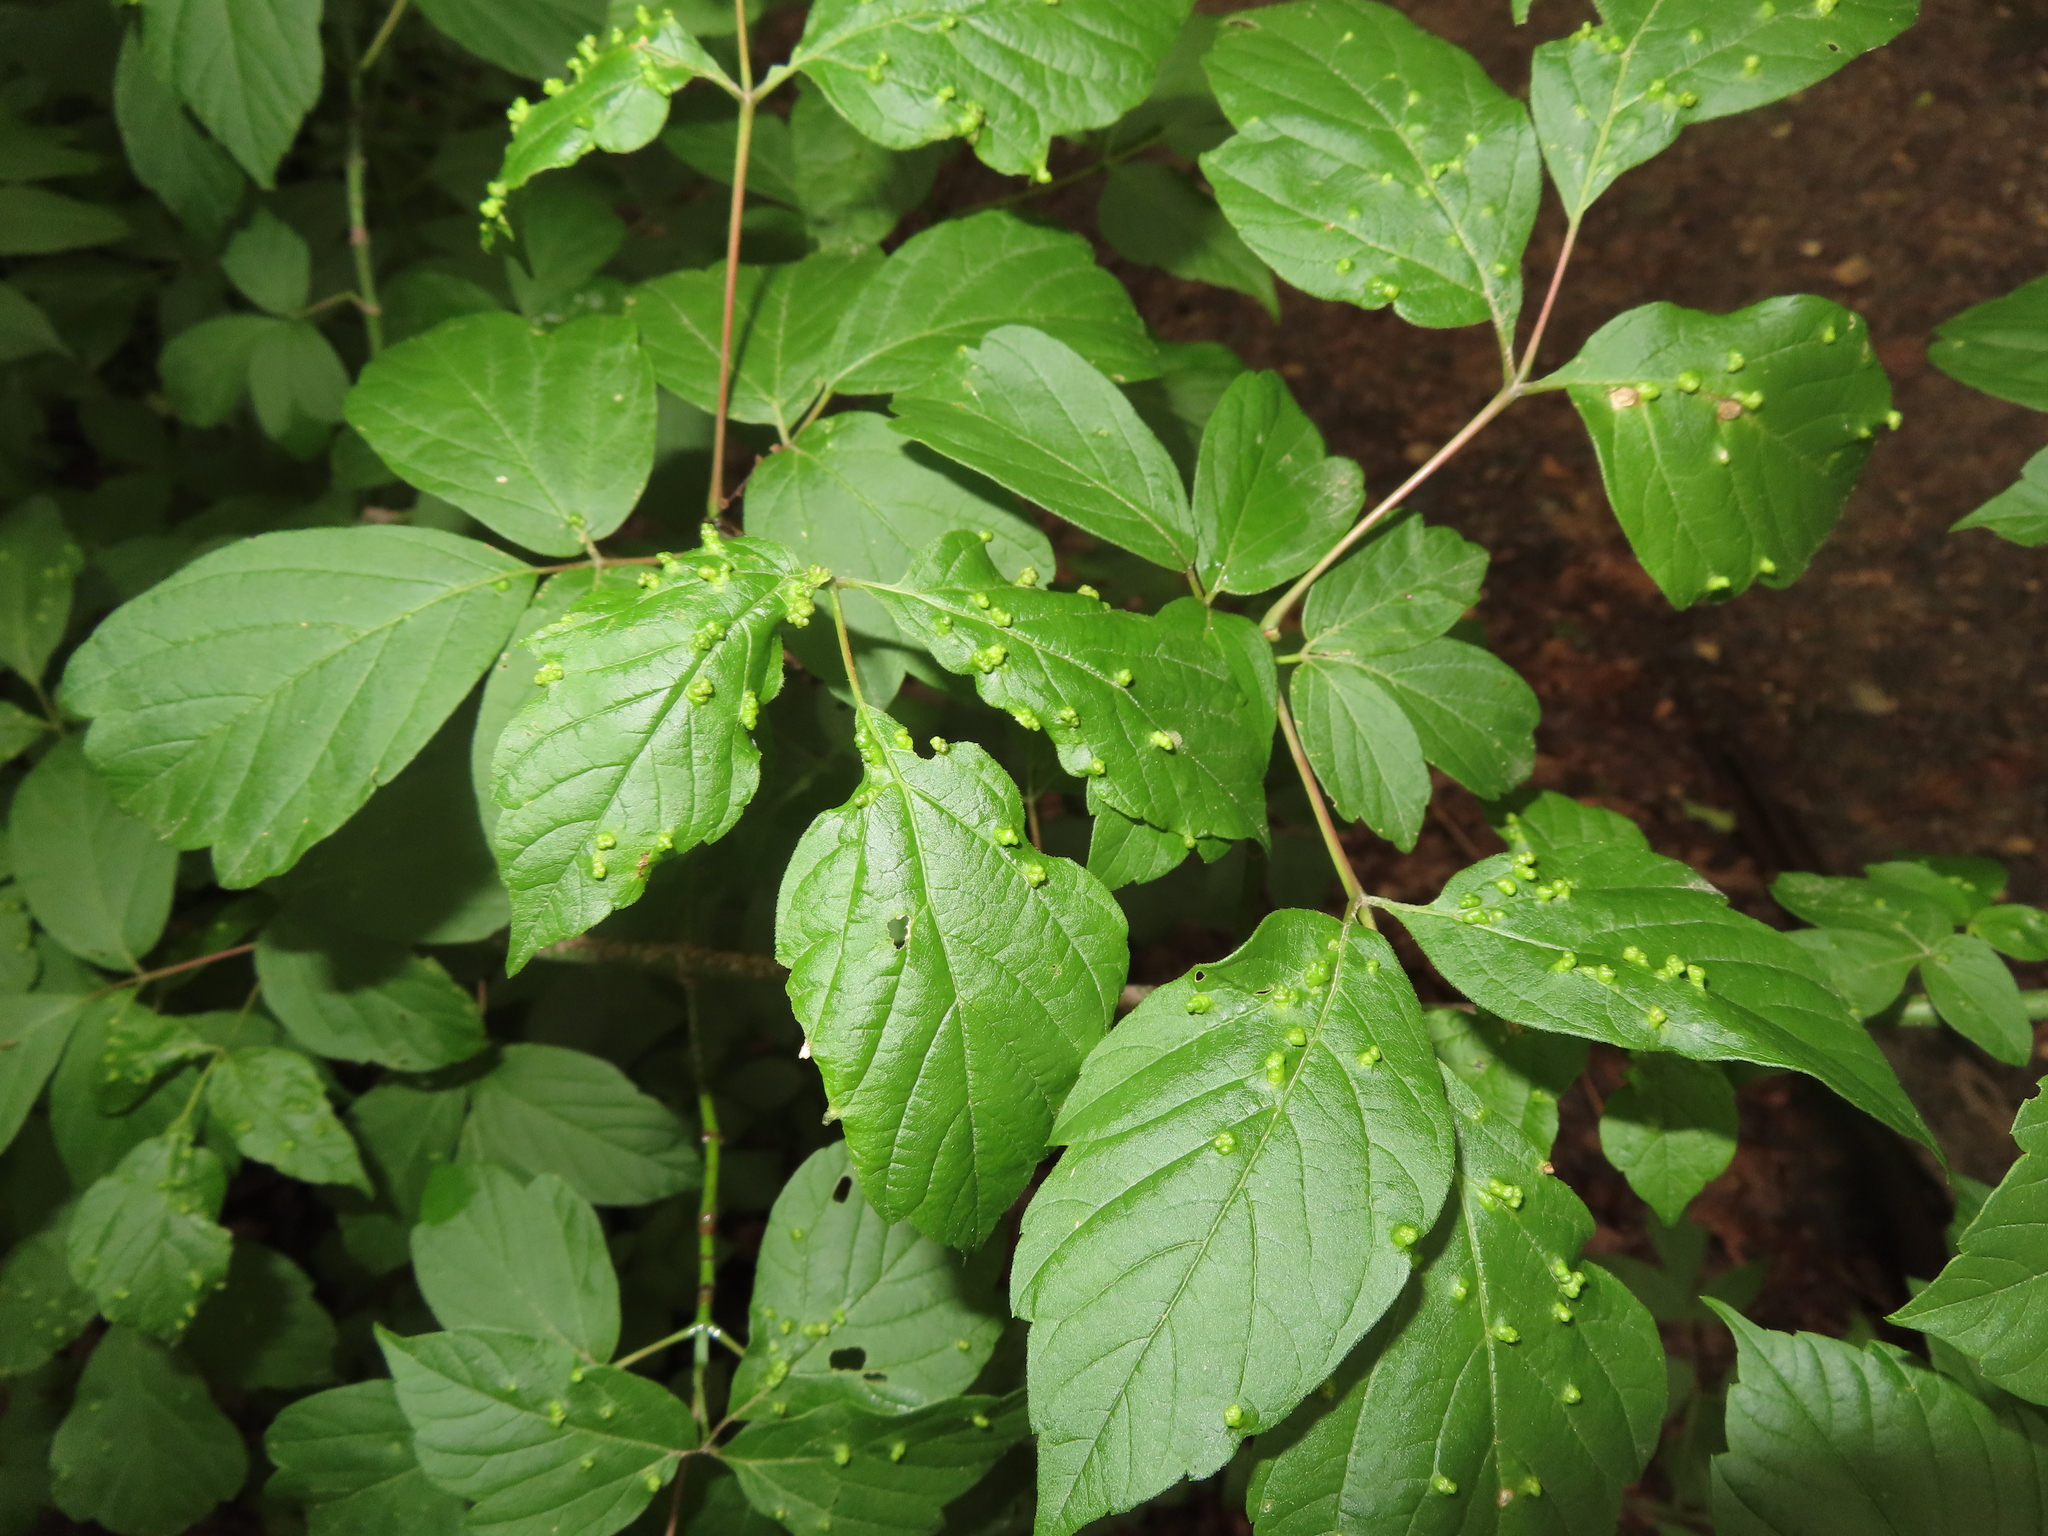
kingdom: Animalia
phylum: Arthropoda
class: Arachnida
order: Trombidiformes
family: Eriophyidae
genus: Aceria
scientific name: Aceria
